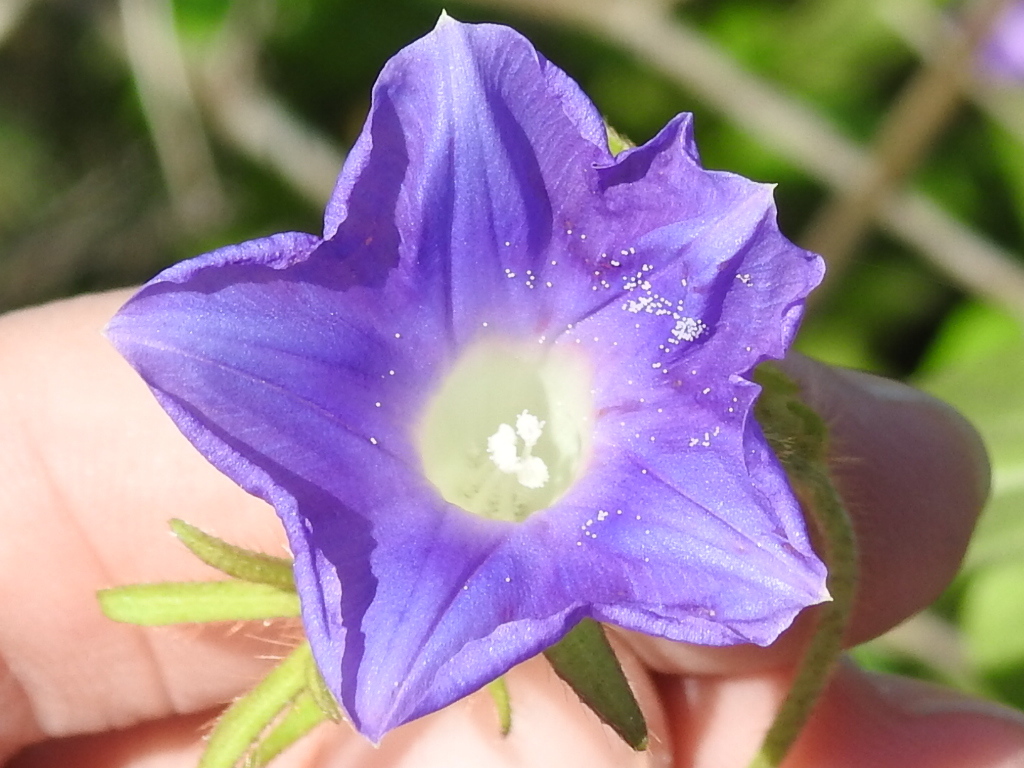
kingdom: Plantae
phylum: Tracheophyta
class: Magnoliopsida
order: Solanales
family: Convolvulaceae
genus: Ipomoea
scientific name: Ipomoea hederacea
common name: Ivy-leaved morning-glory
